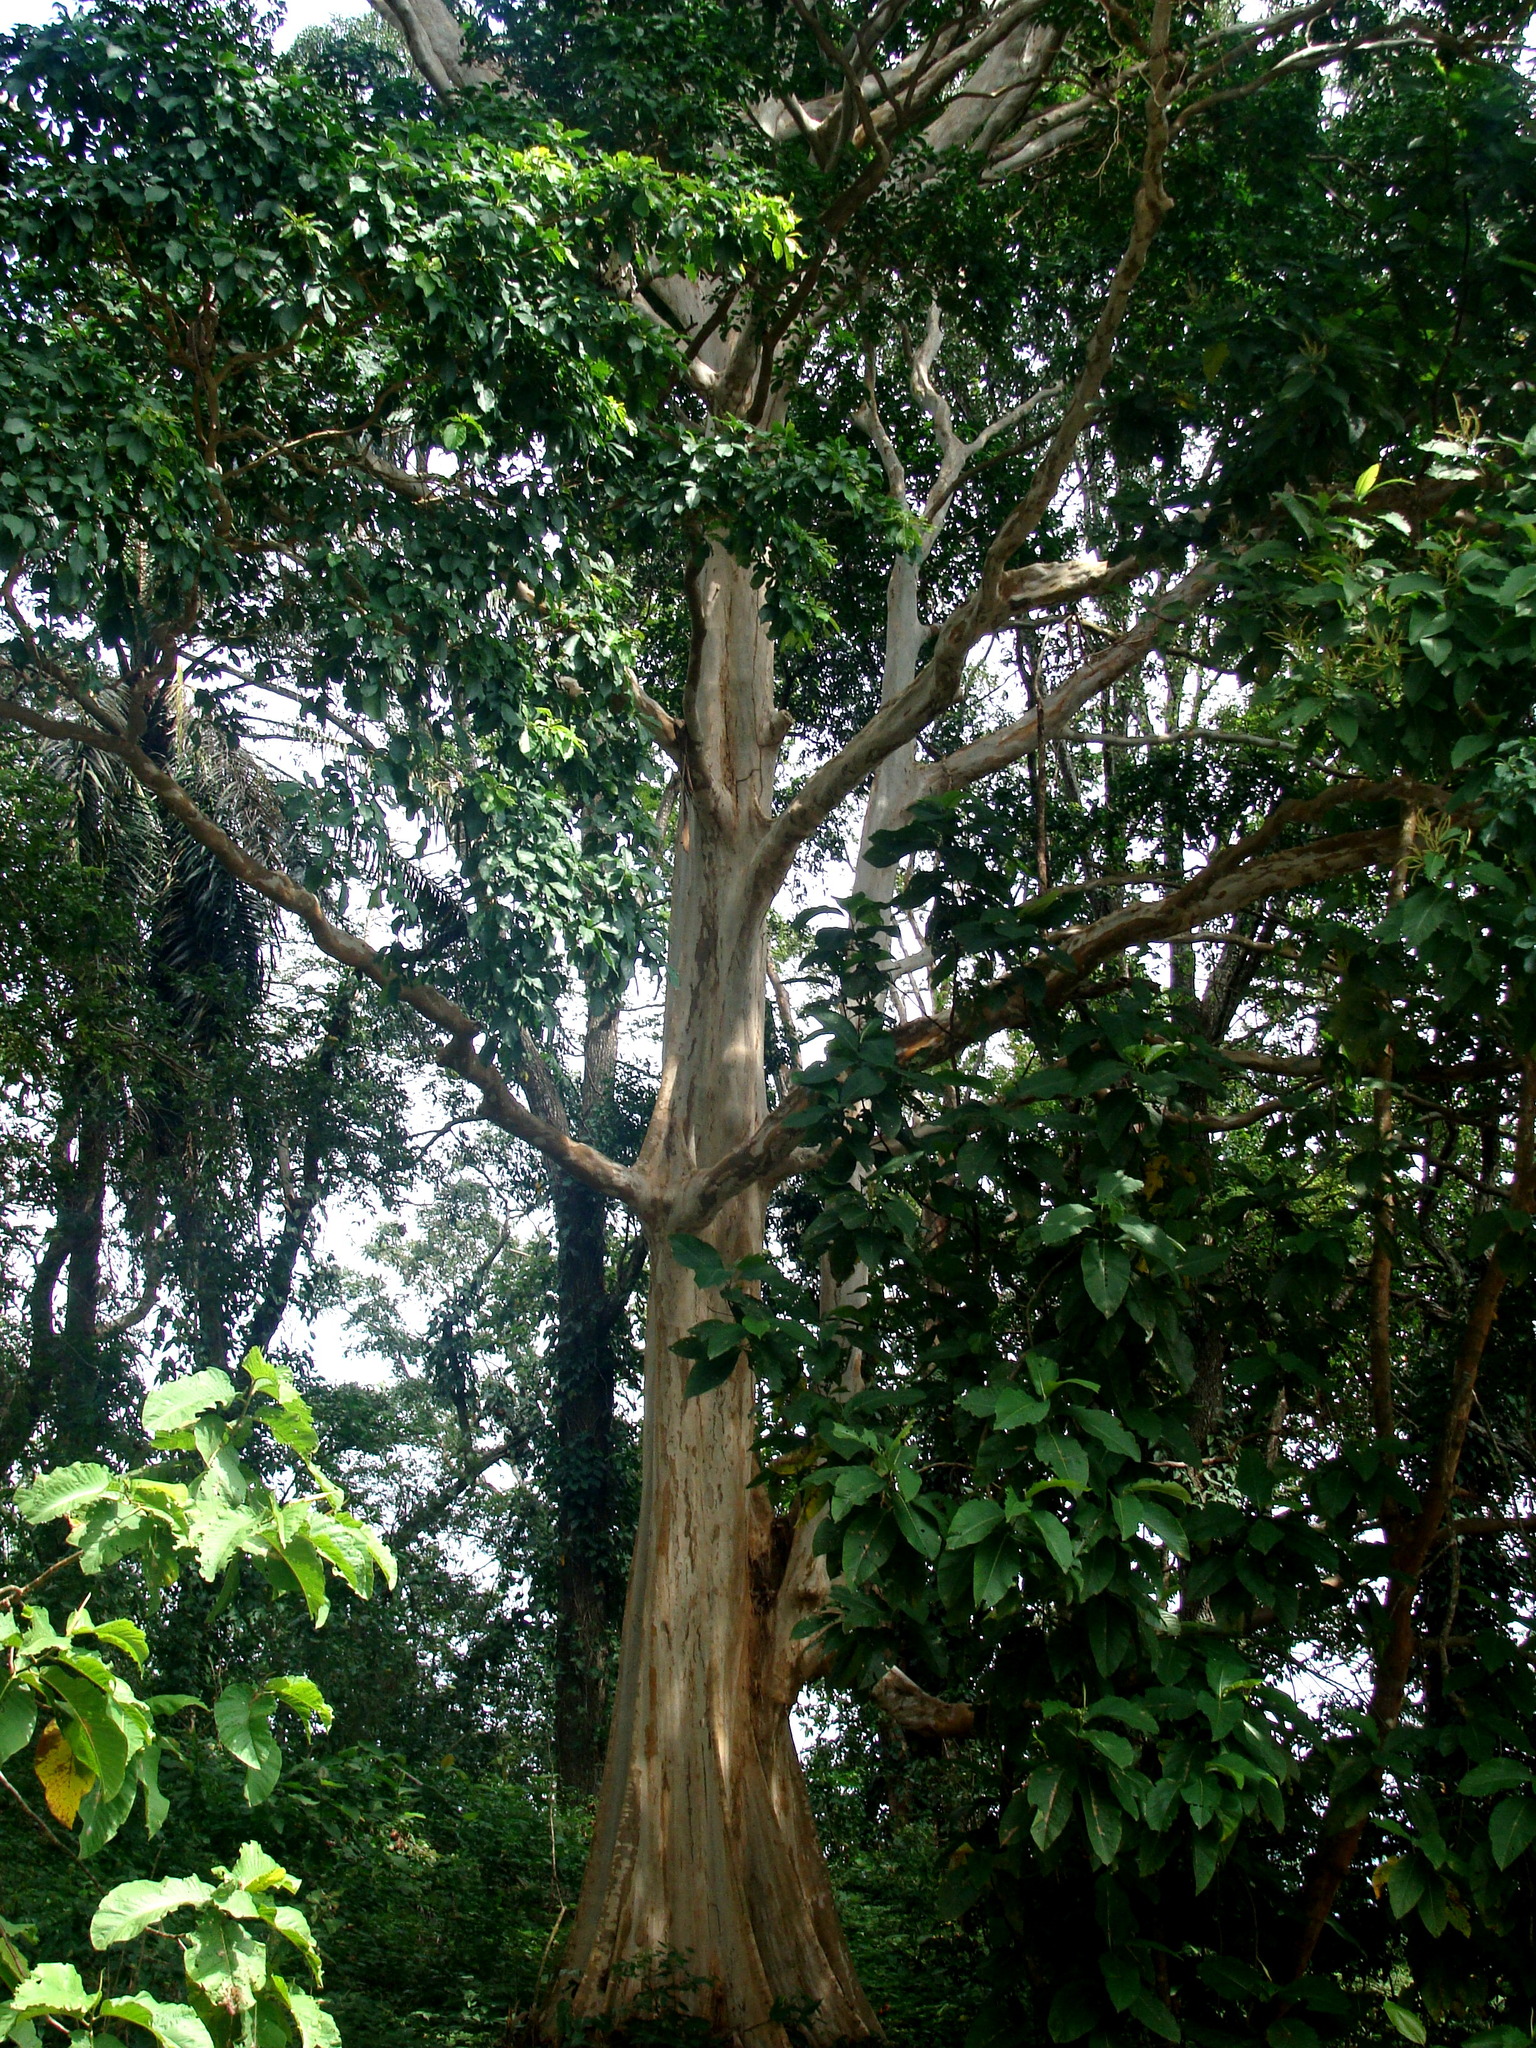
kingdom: Plantae
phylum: Tracheophyta
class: Magnoliopsida
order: Myrtales
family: Combretaceae
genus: Terminalia
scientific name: Terminalia oblonga
